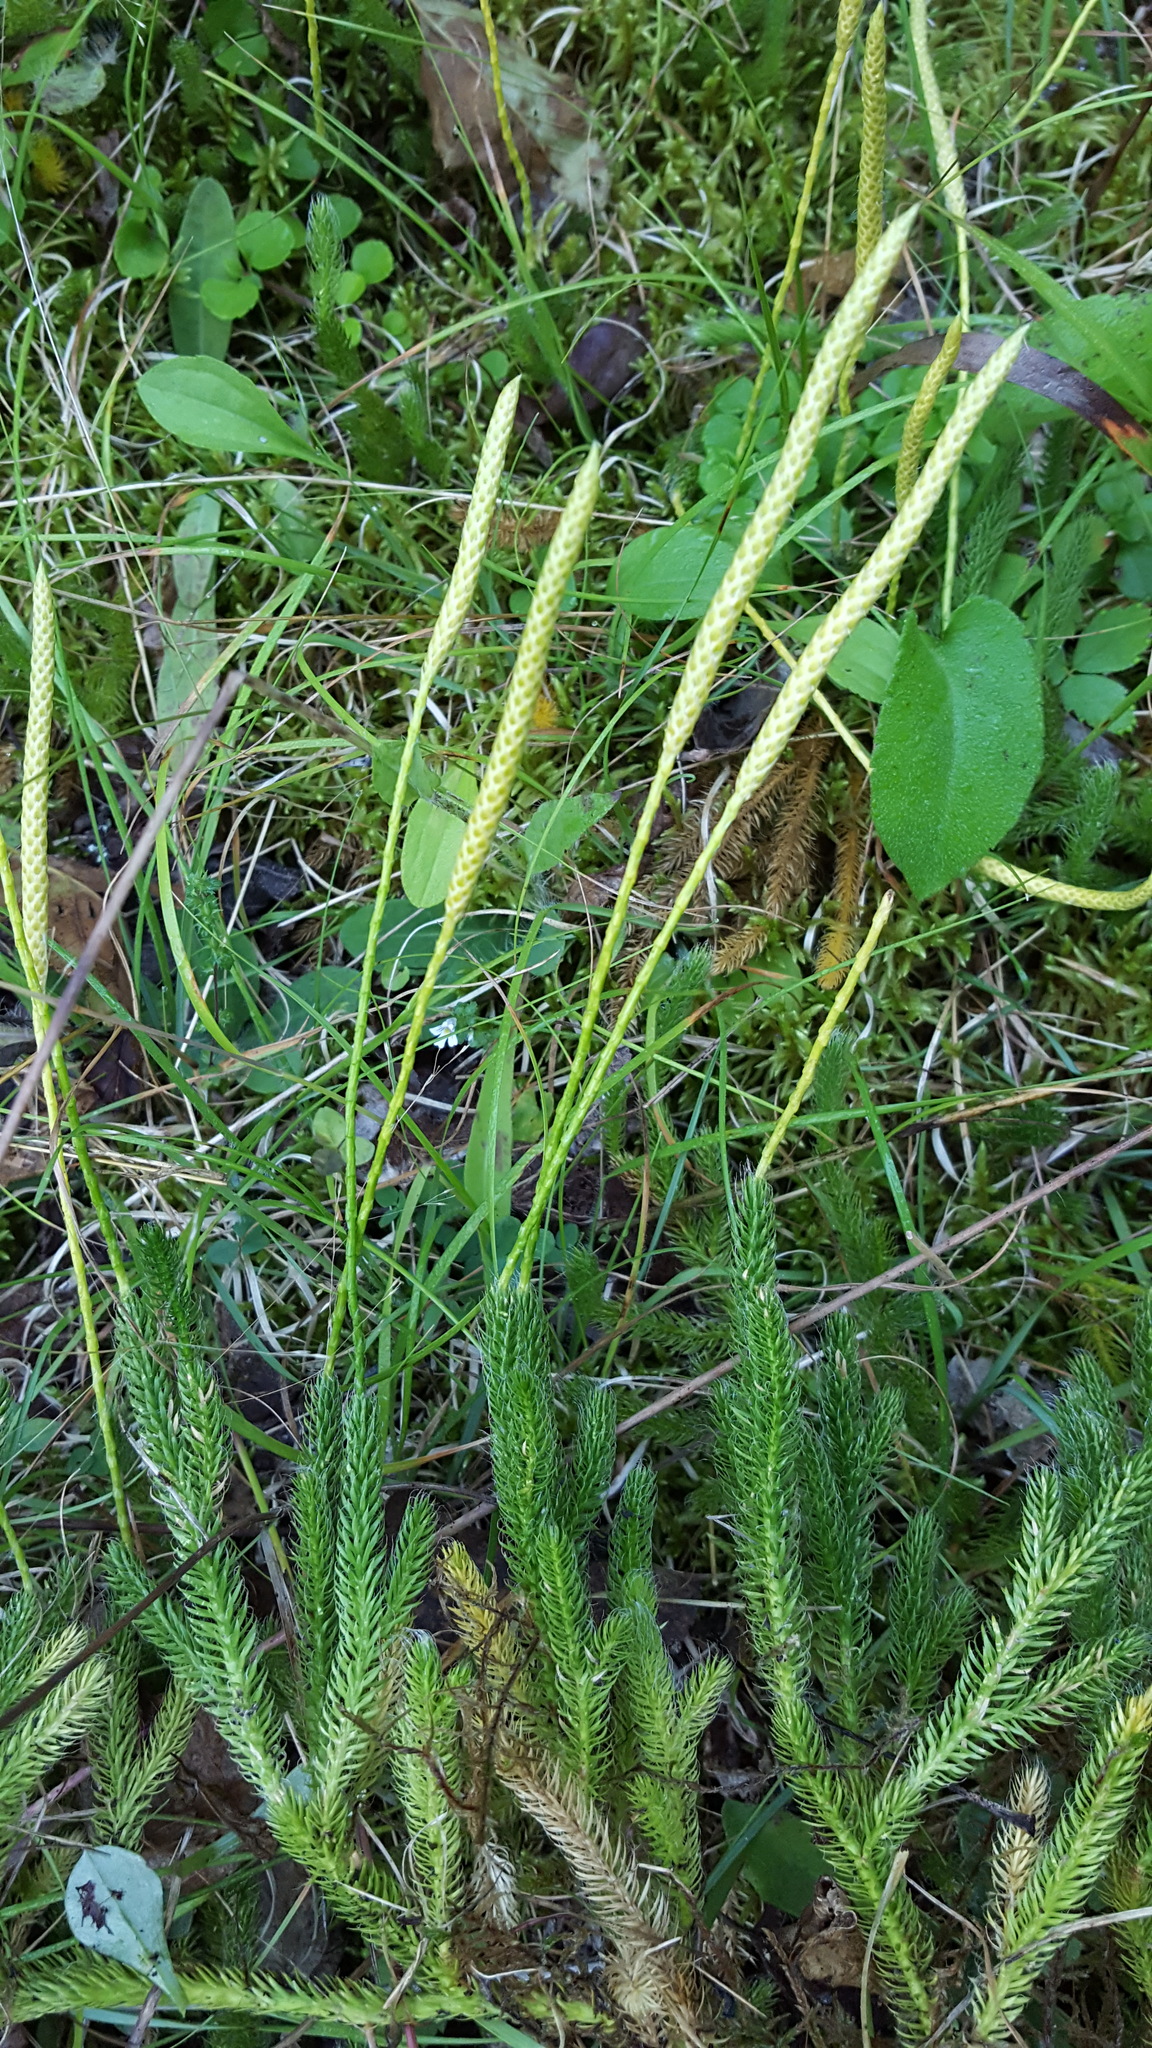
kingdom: Plantae
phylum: Tracheophyta
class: Lycopodiopsida
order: Lycopodiales
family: Lycopodiaceae
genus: Lycopodium
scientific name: Lycopodium lagopus
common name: One-cone clubmoss
